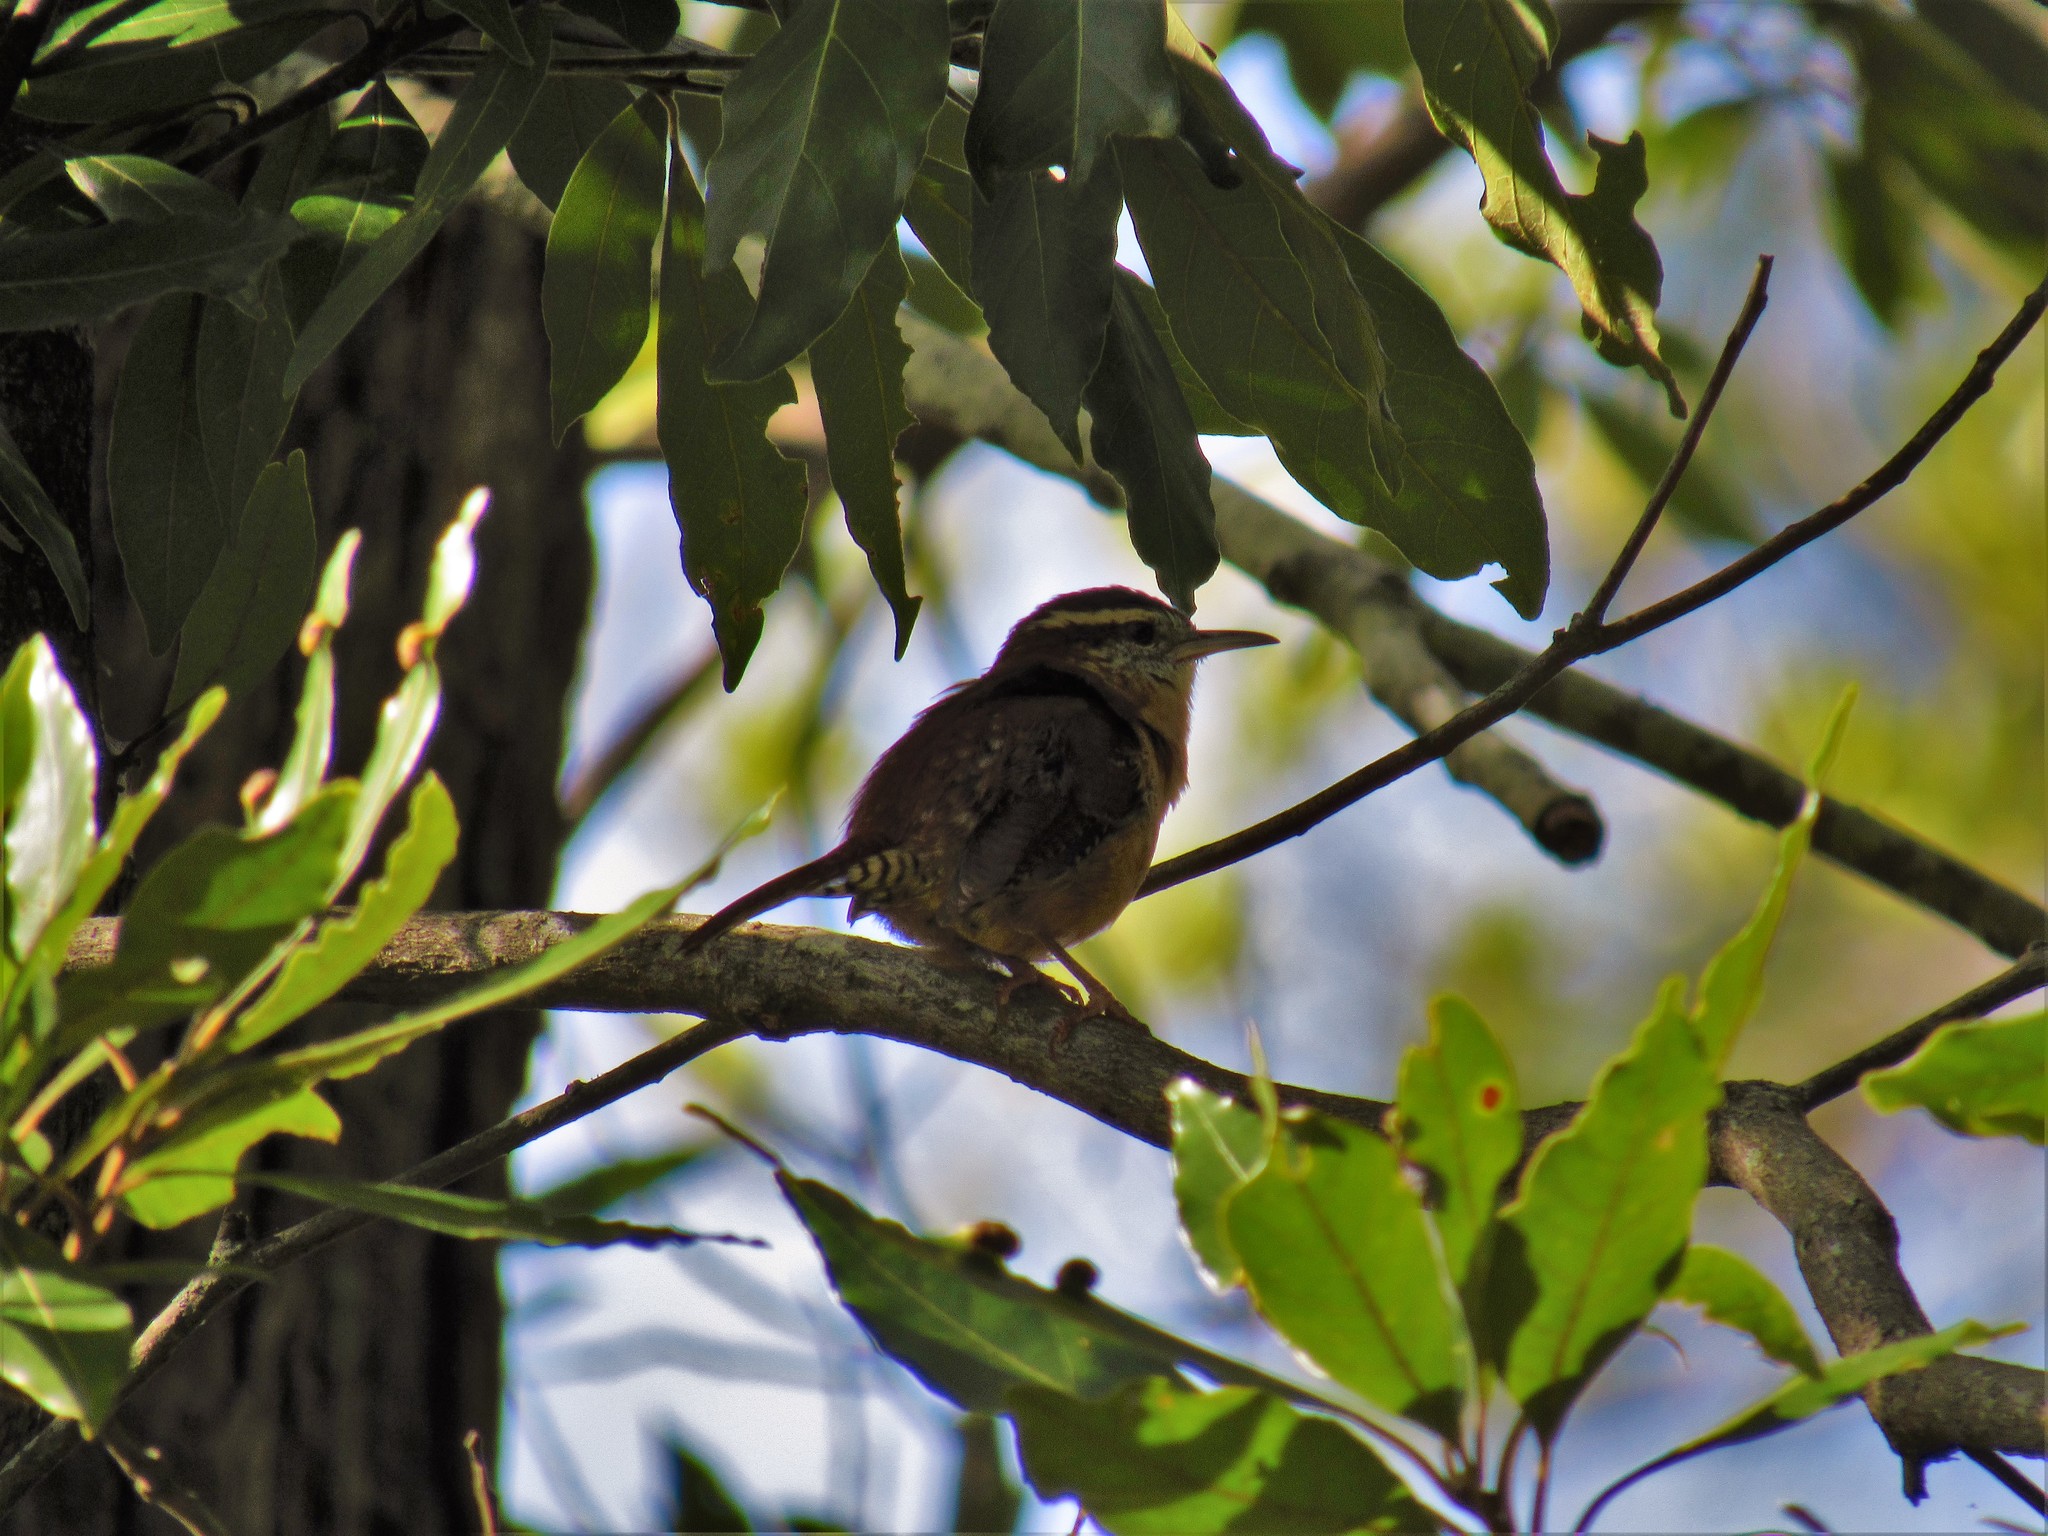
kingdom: Animalia
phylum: Chordata
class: Aves
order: Passeriformes
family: Troglodytidae
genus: Thryothorus
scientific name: Thryothorus ludovicianus
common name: Carolina wren
